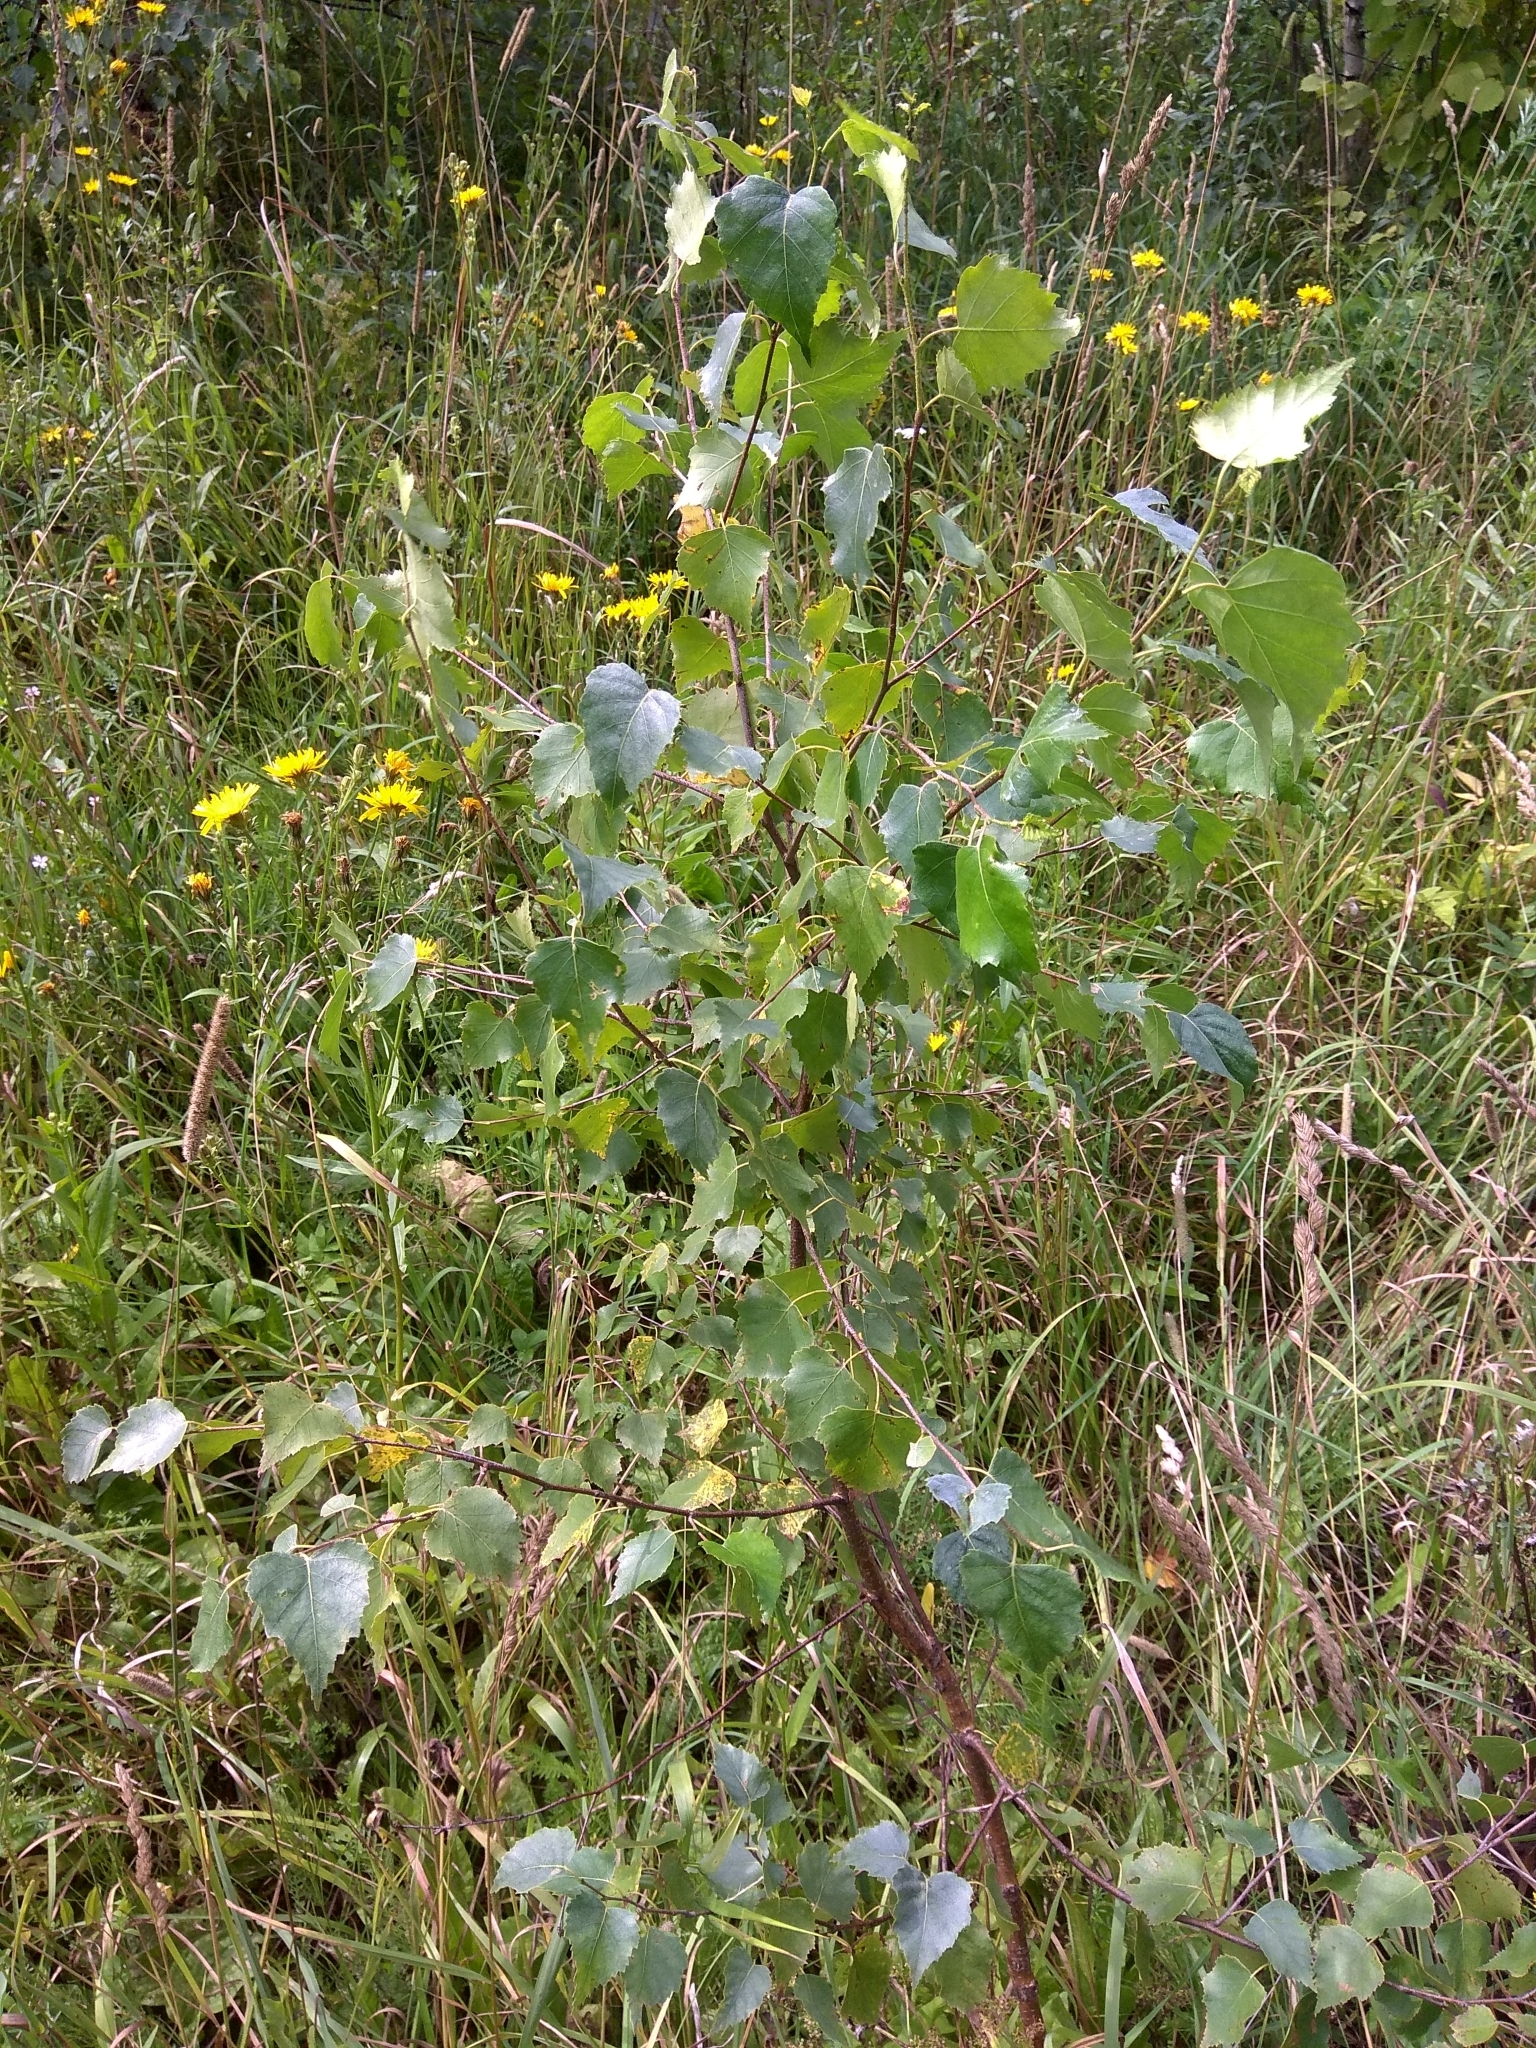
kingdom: Plantae
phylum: Tracheophyta
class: Magnoliopsida
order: Fagales
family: Betulaceae
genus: Betula
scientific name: Betula pendula
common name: Silver birch
